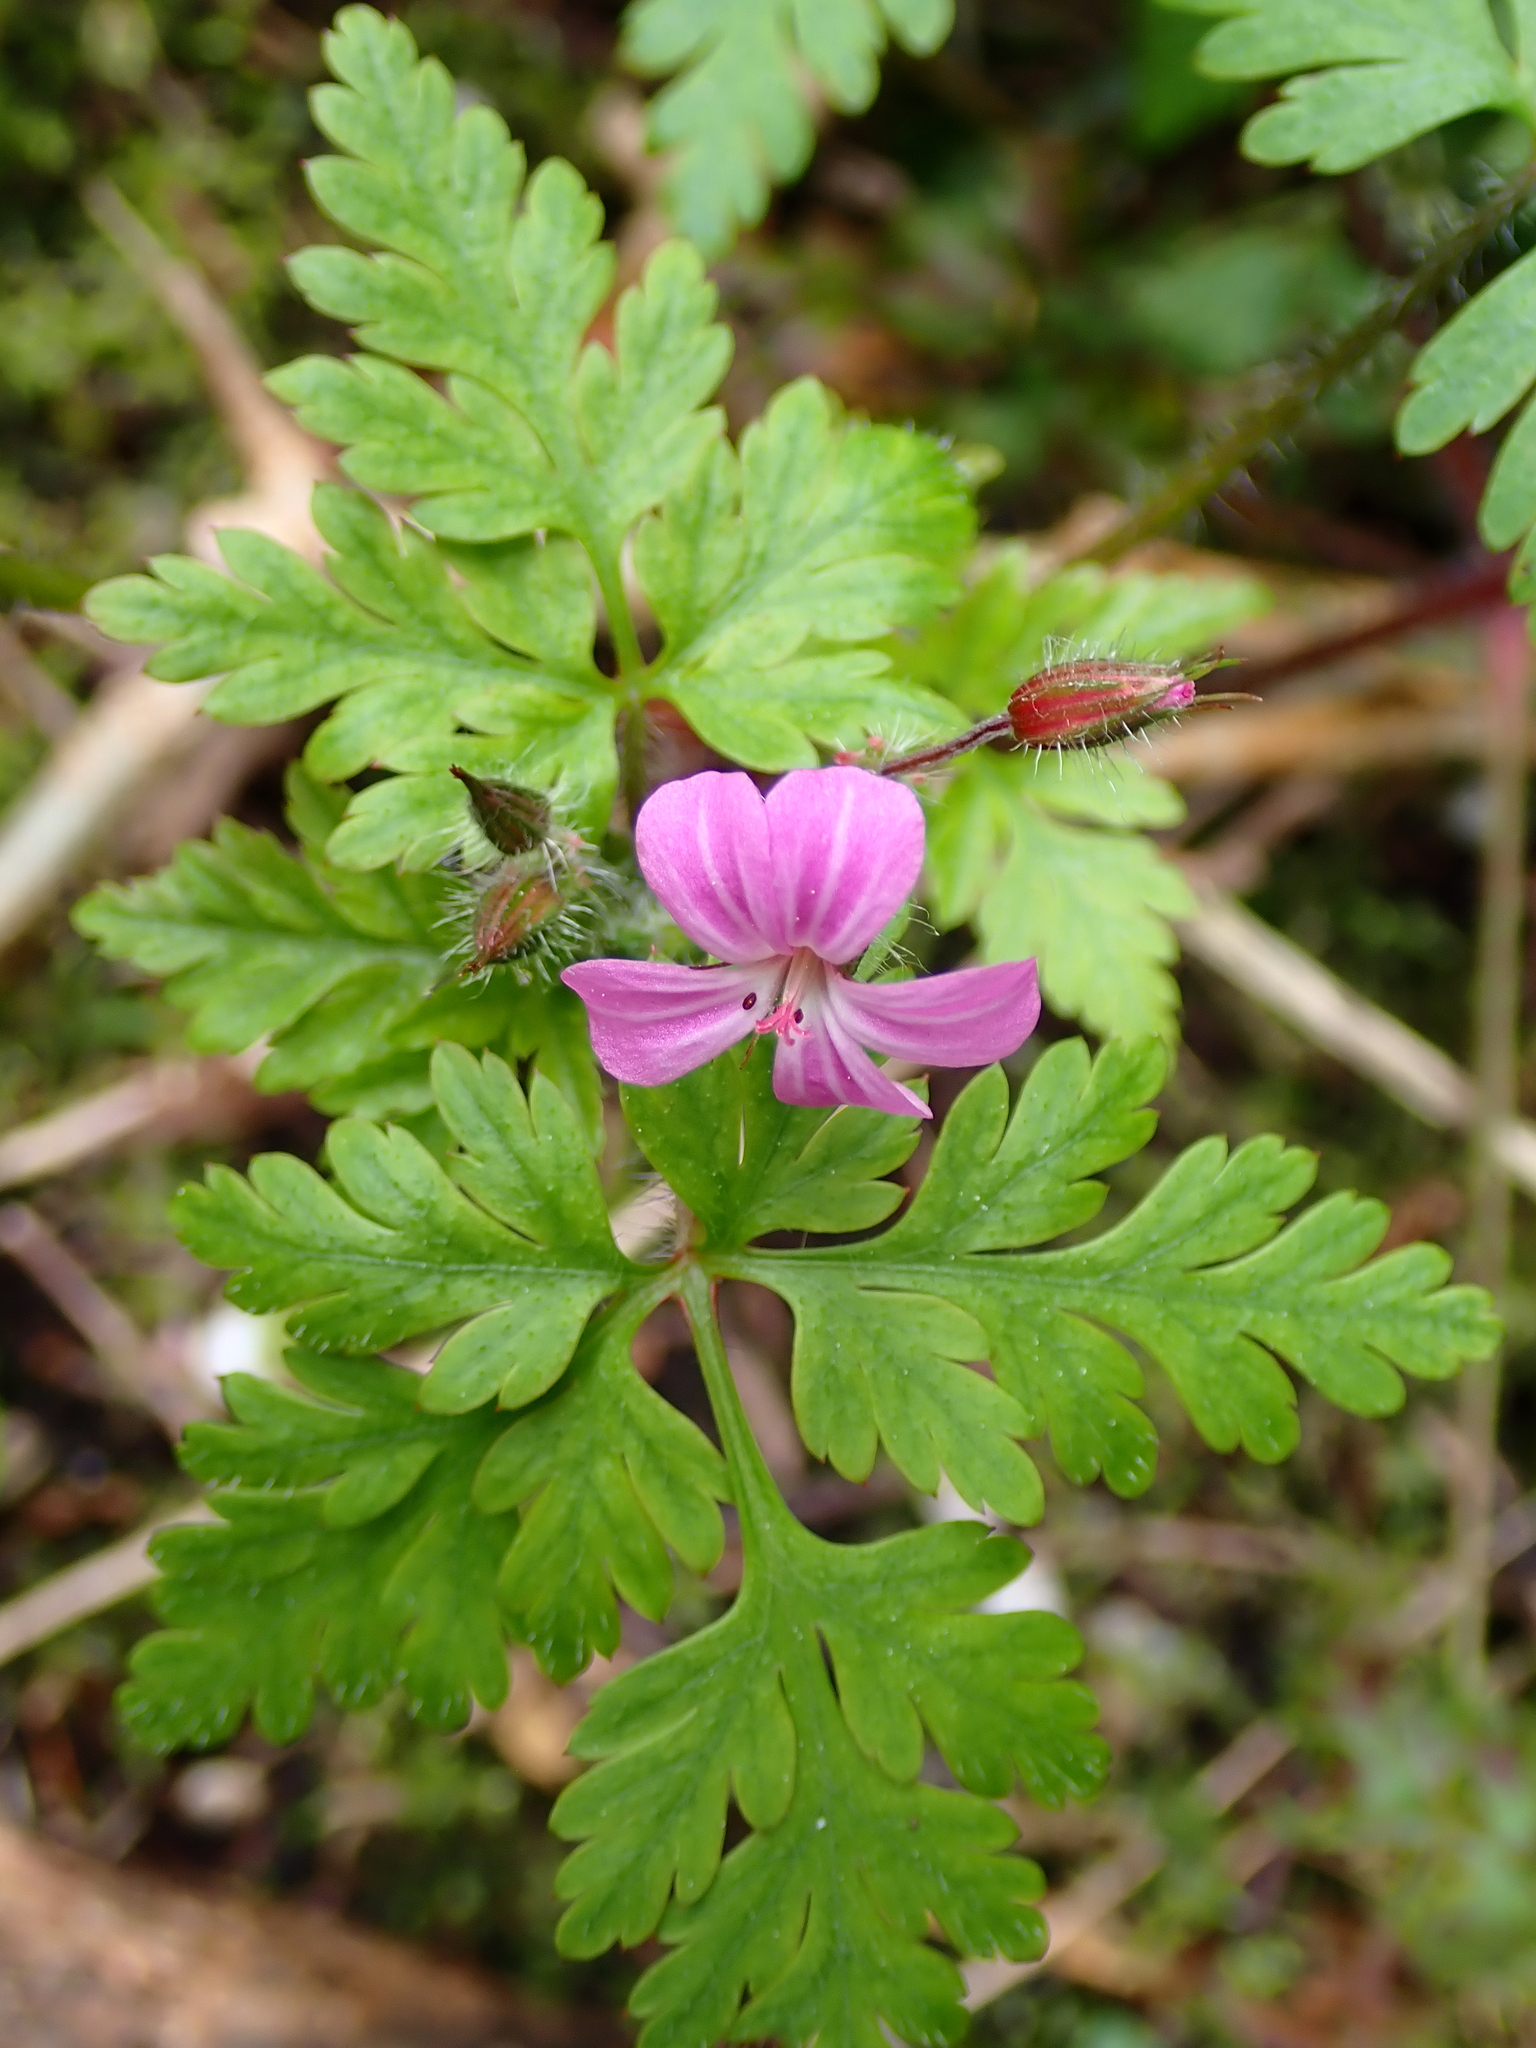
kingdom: Plantae
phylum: Tracheophyta
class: Magnoliopsida
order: Geraniales
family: Geraniaceae
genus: Geranium
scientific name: Geranium robertianum
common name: Herb-robert
